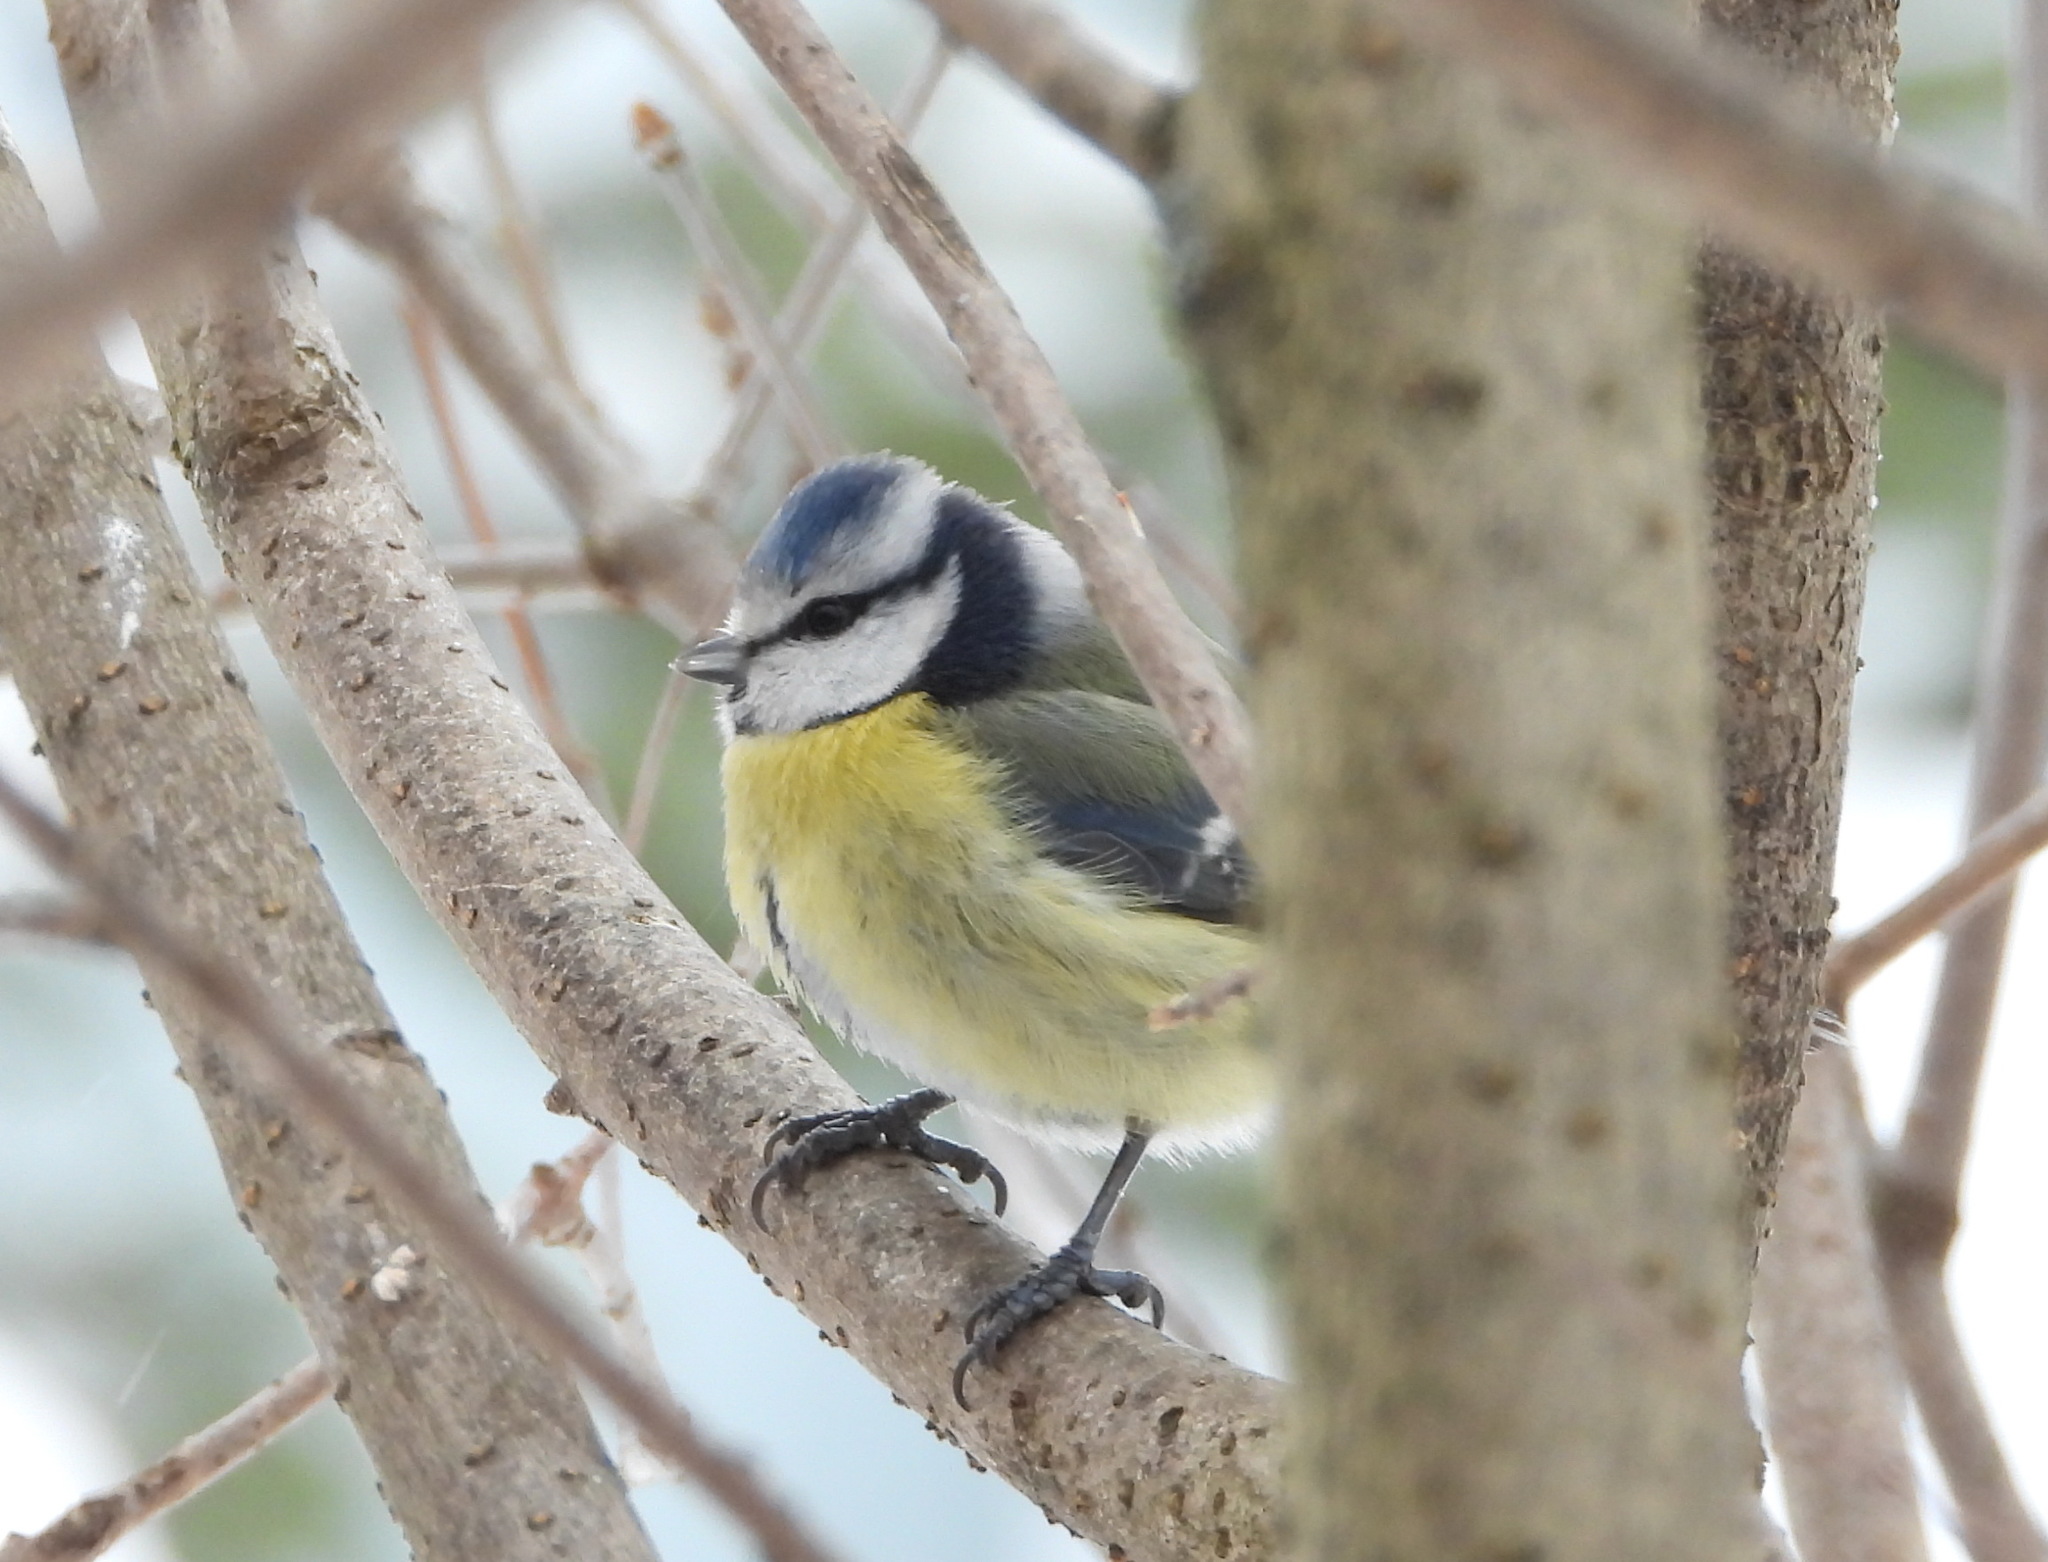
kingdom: Animalia
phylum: Chordata
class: Aves
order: Passeriformes
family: Paridae
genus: Cyanistes
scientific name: Cyanistes caeruleus
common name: Eurasian blue tit
